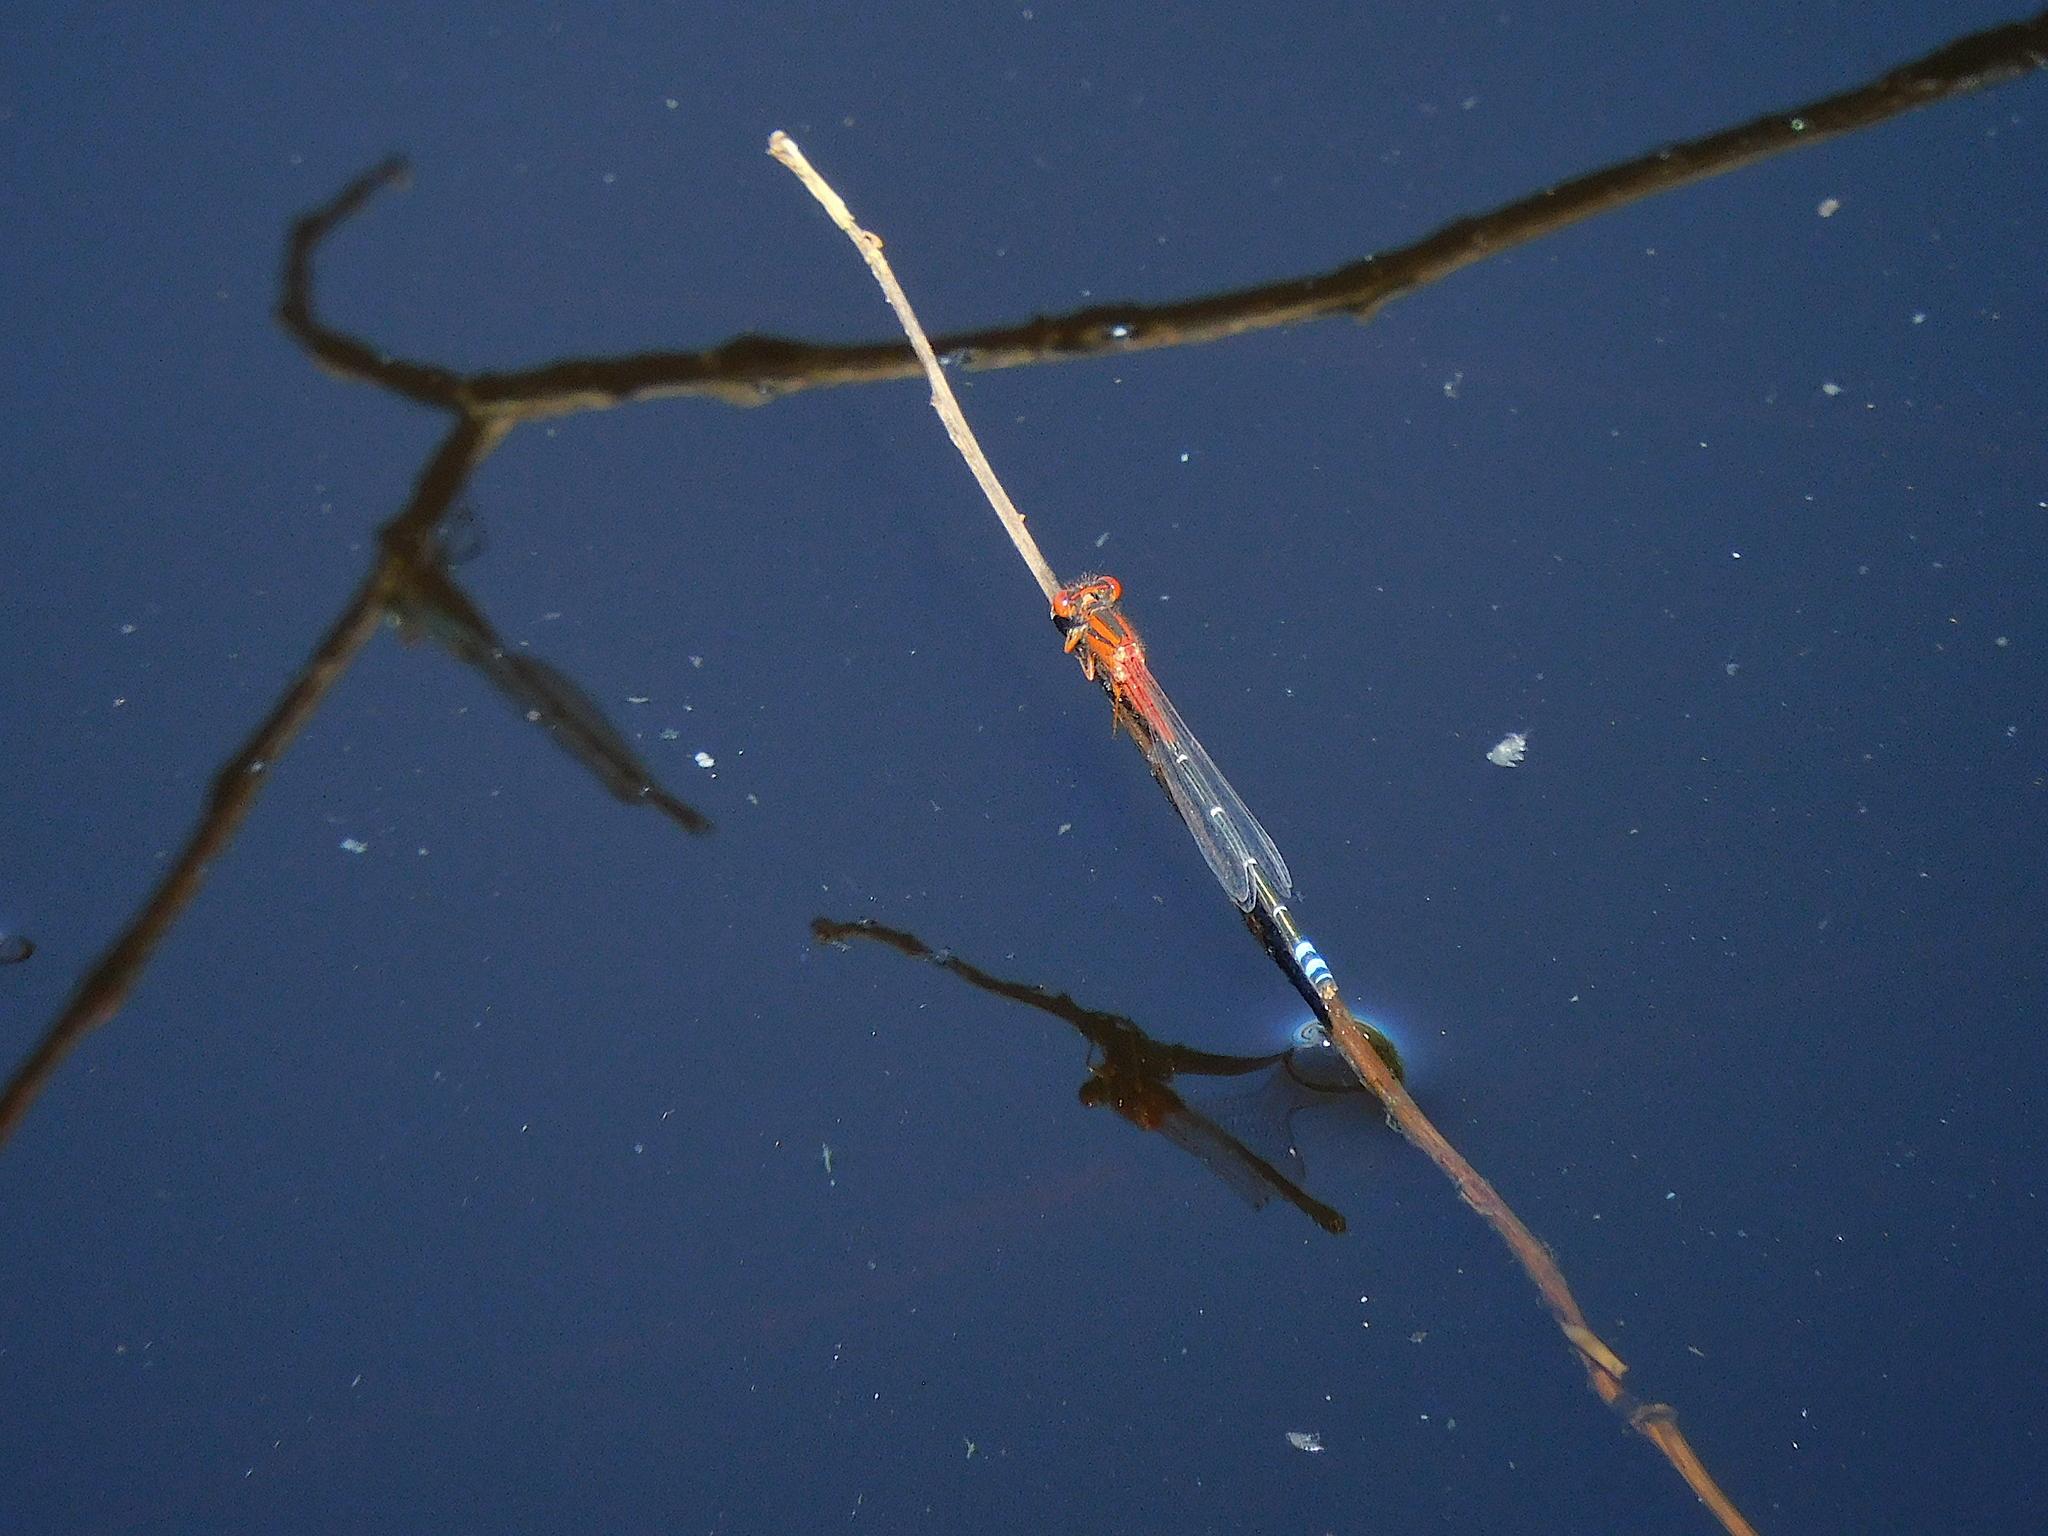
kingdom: Animalia
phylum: Arthropoda
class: Insecta
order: Odonata
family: Coenagrionidae
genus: Xanthagrion
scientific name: Xanthagrion erythroneurum
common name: Red and blue damsel
